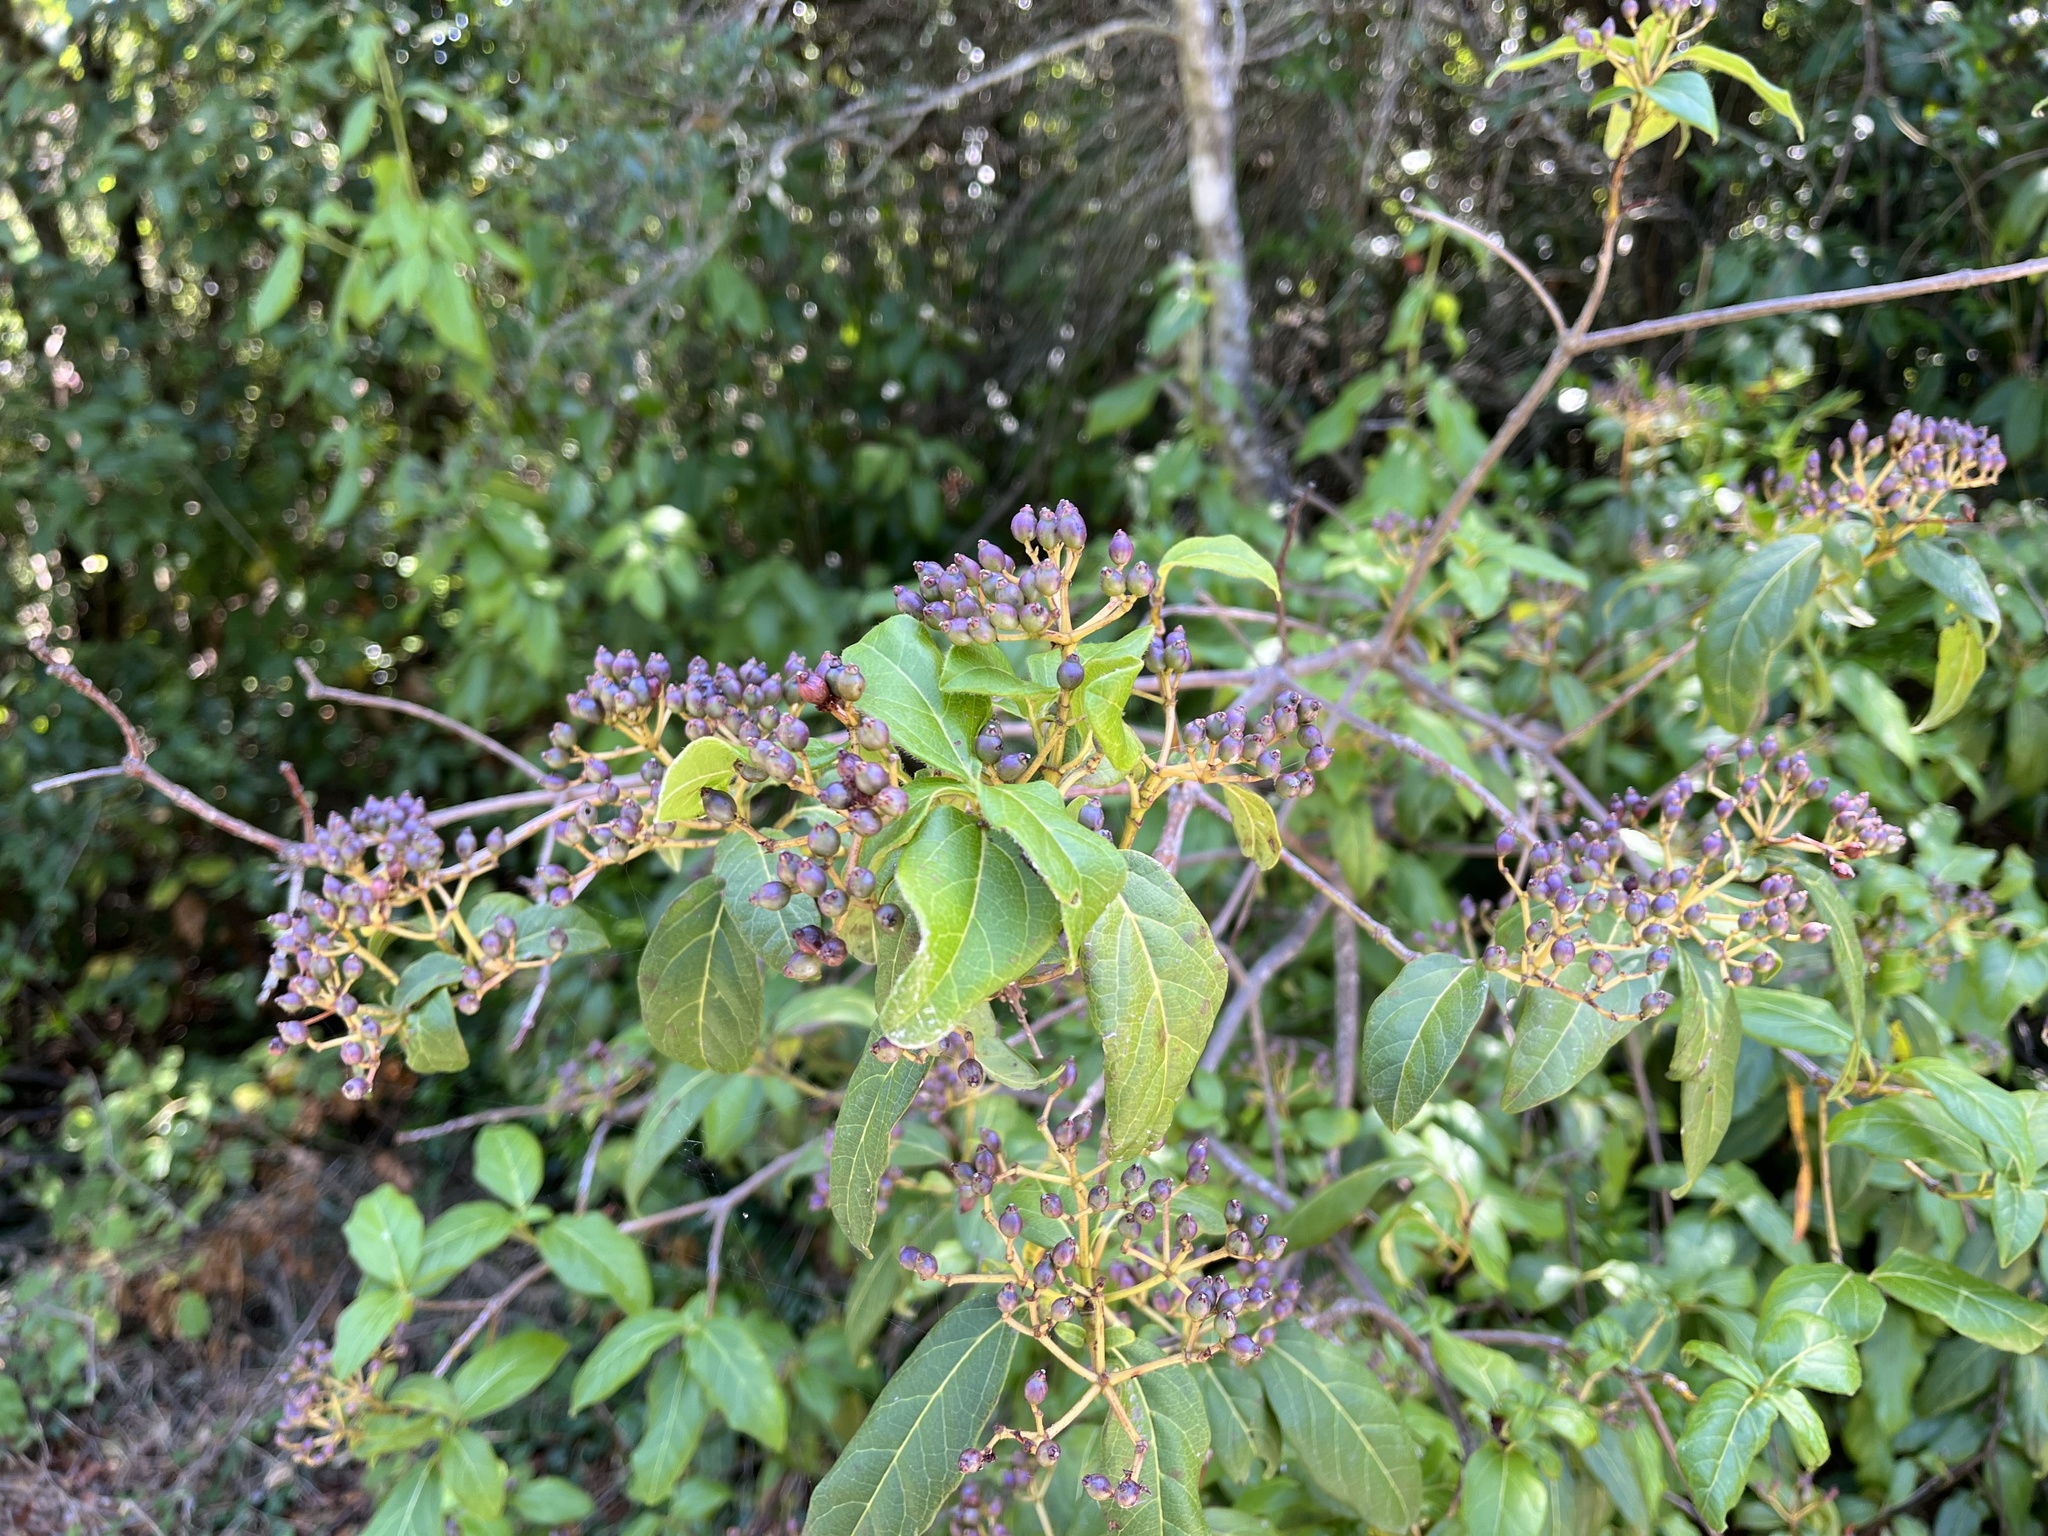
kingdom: Plantae
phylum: Tracheophyta
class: Magnoliopsida
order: Dipsacales
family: Viburnaceae
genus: Viburnum
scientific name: Viburnum tinus
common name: Laurustinus
